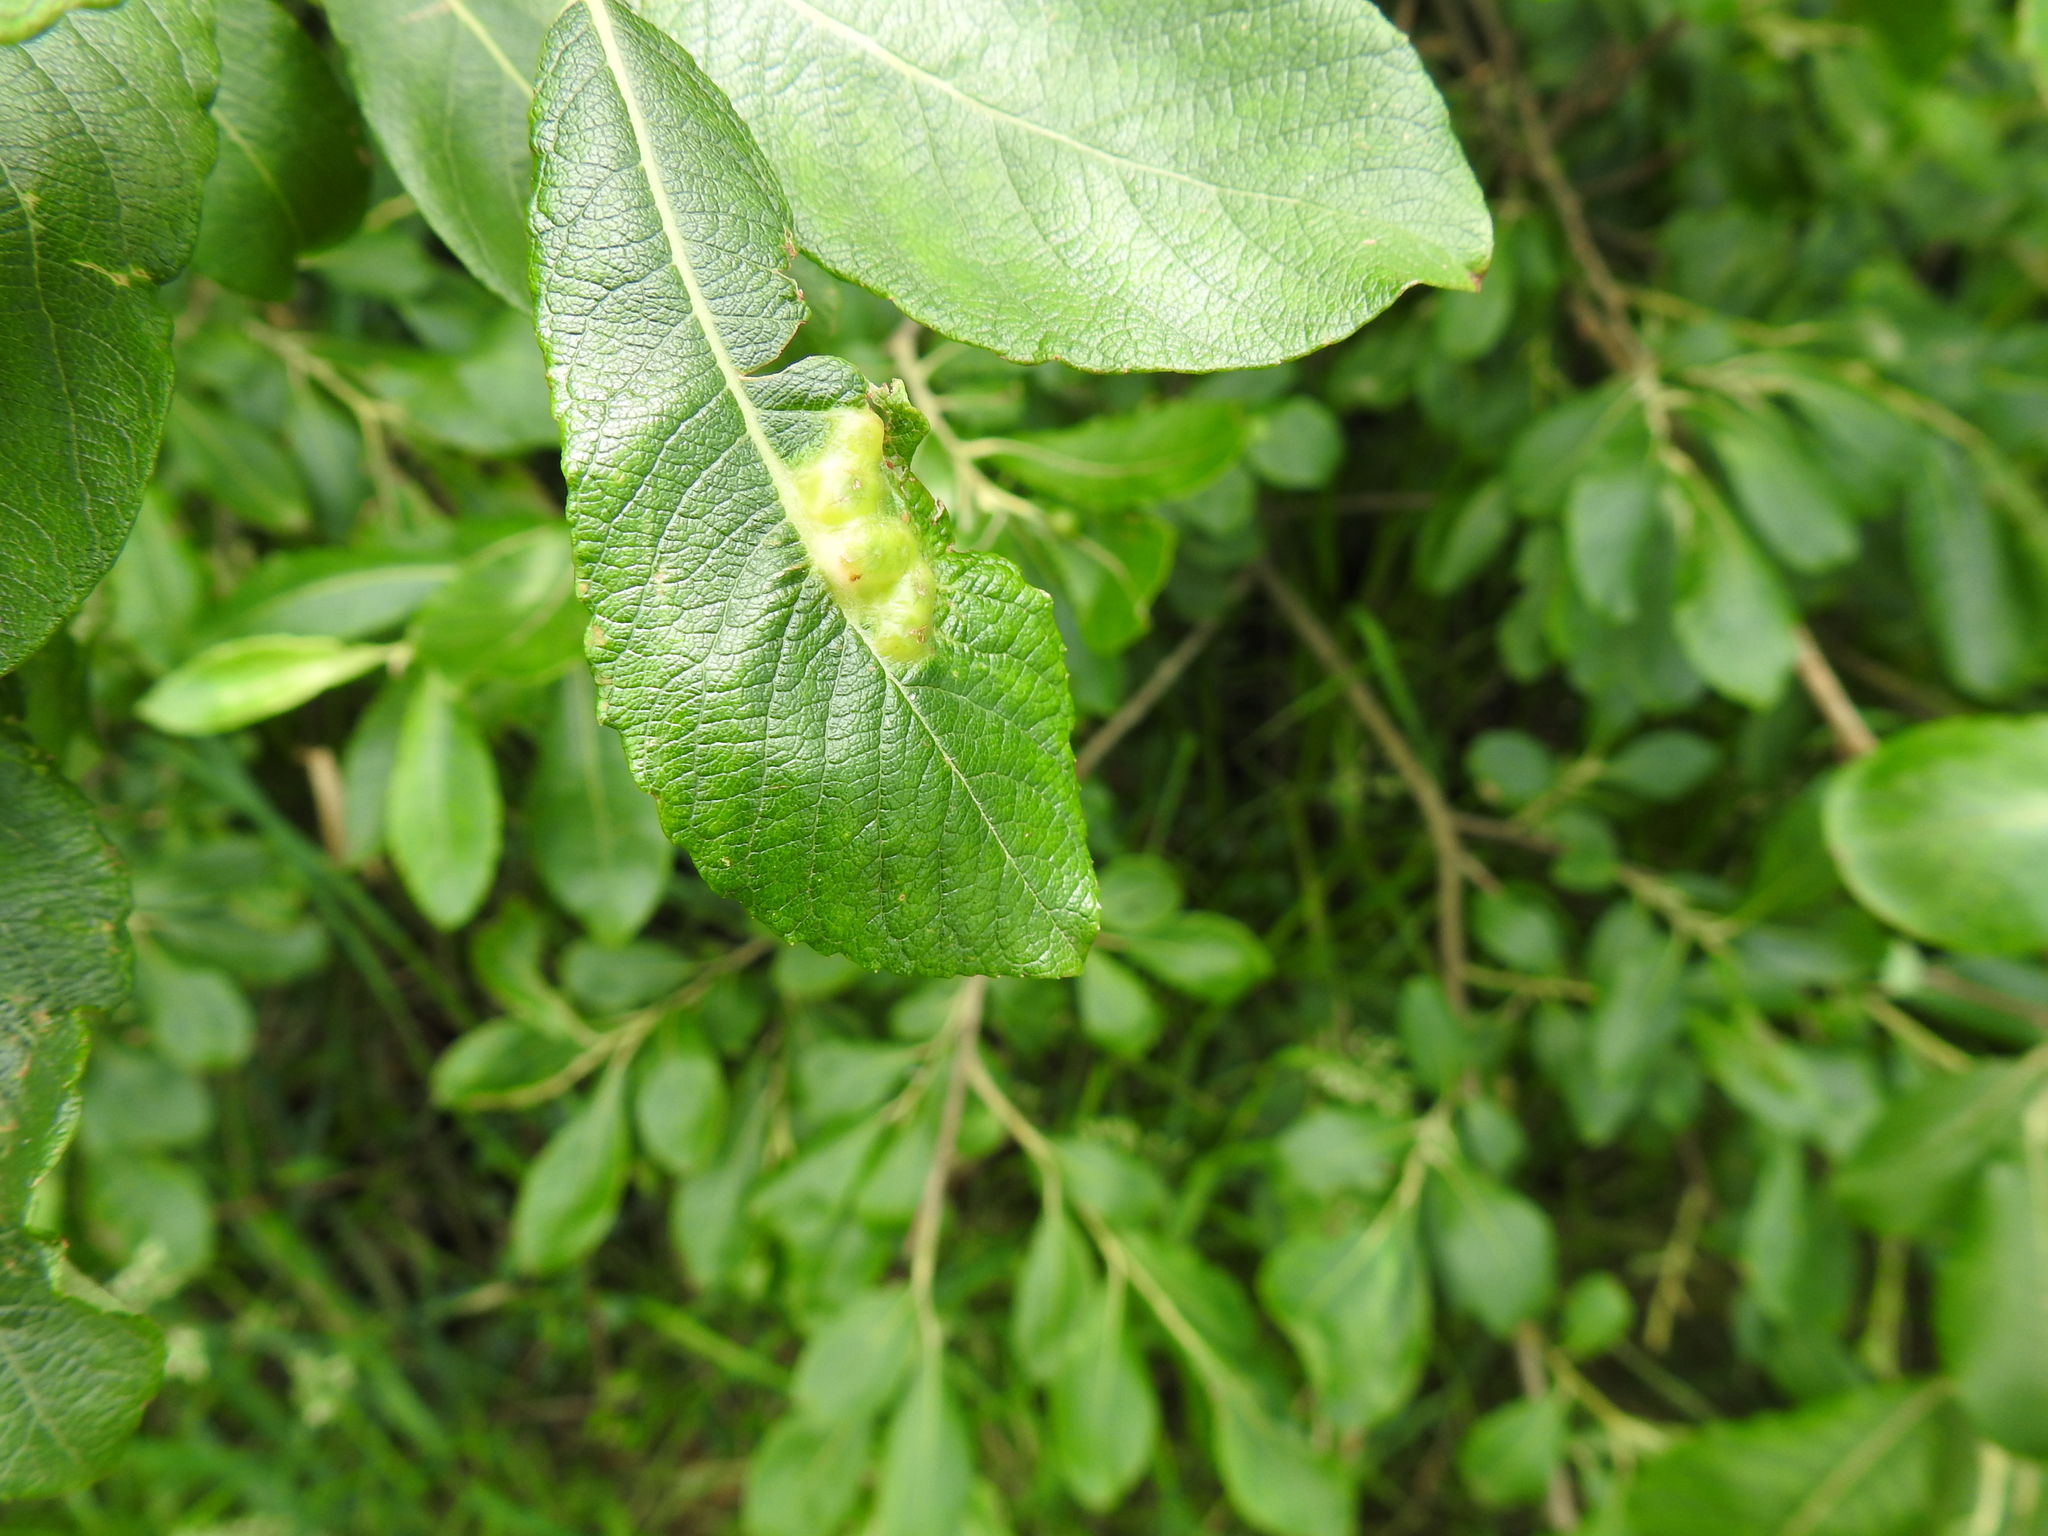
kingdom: Animalia
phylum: Arthropoda
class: Insecta
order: Diptera
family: Cecidomyiidae
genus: Iteomyia
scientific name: Iteomyia major
